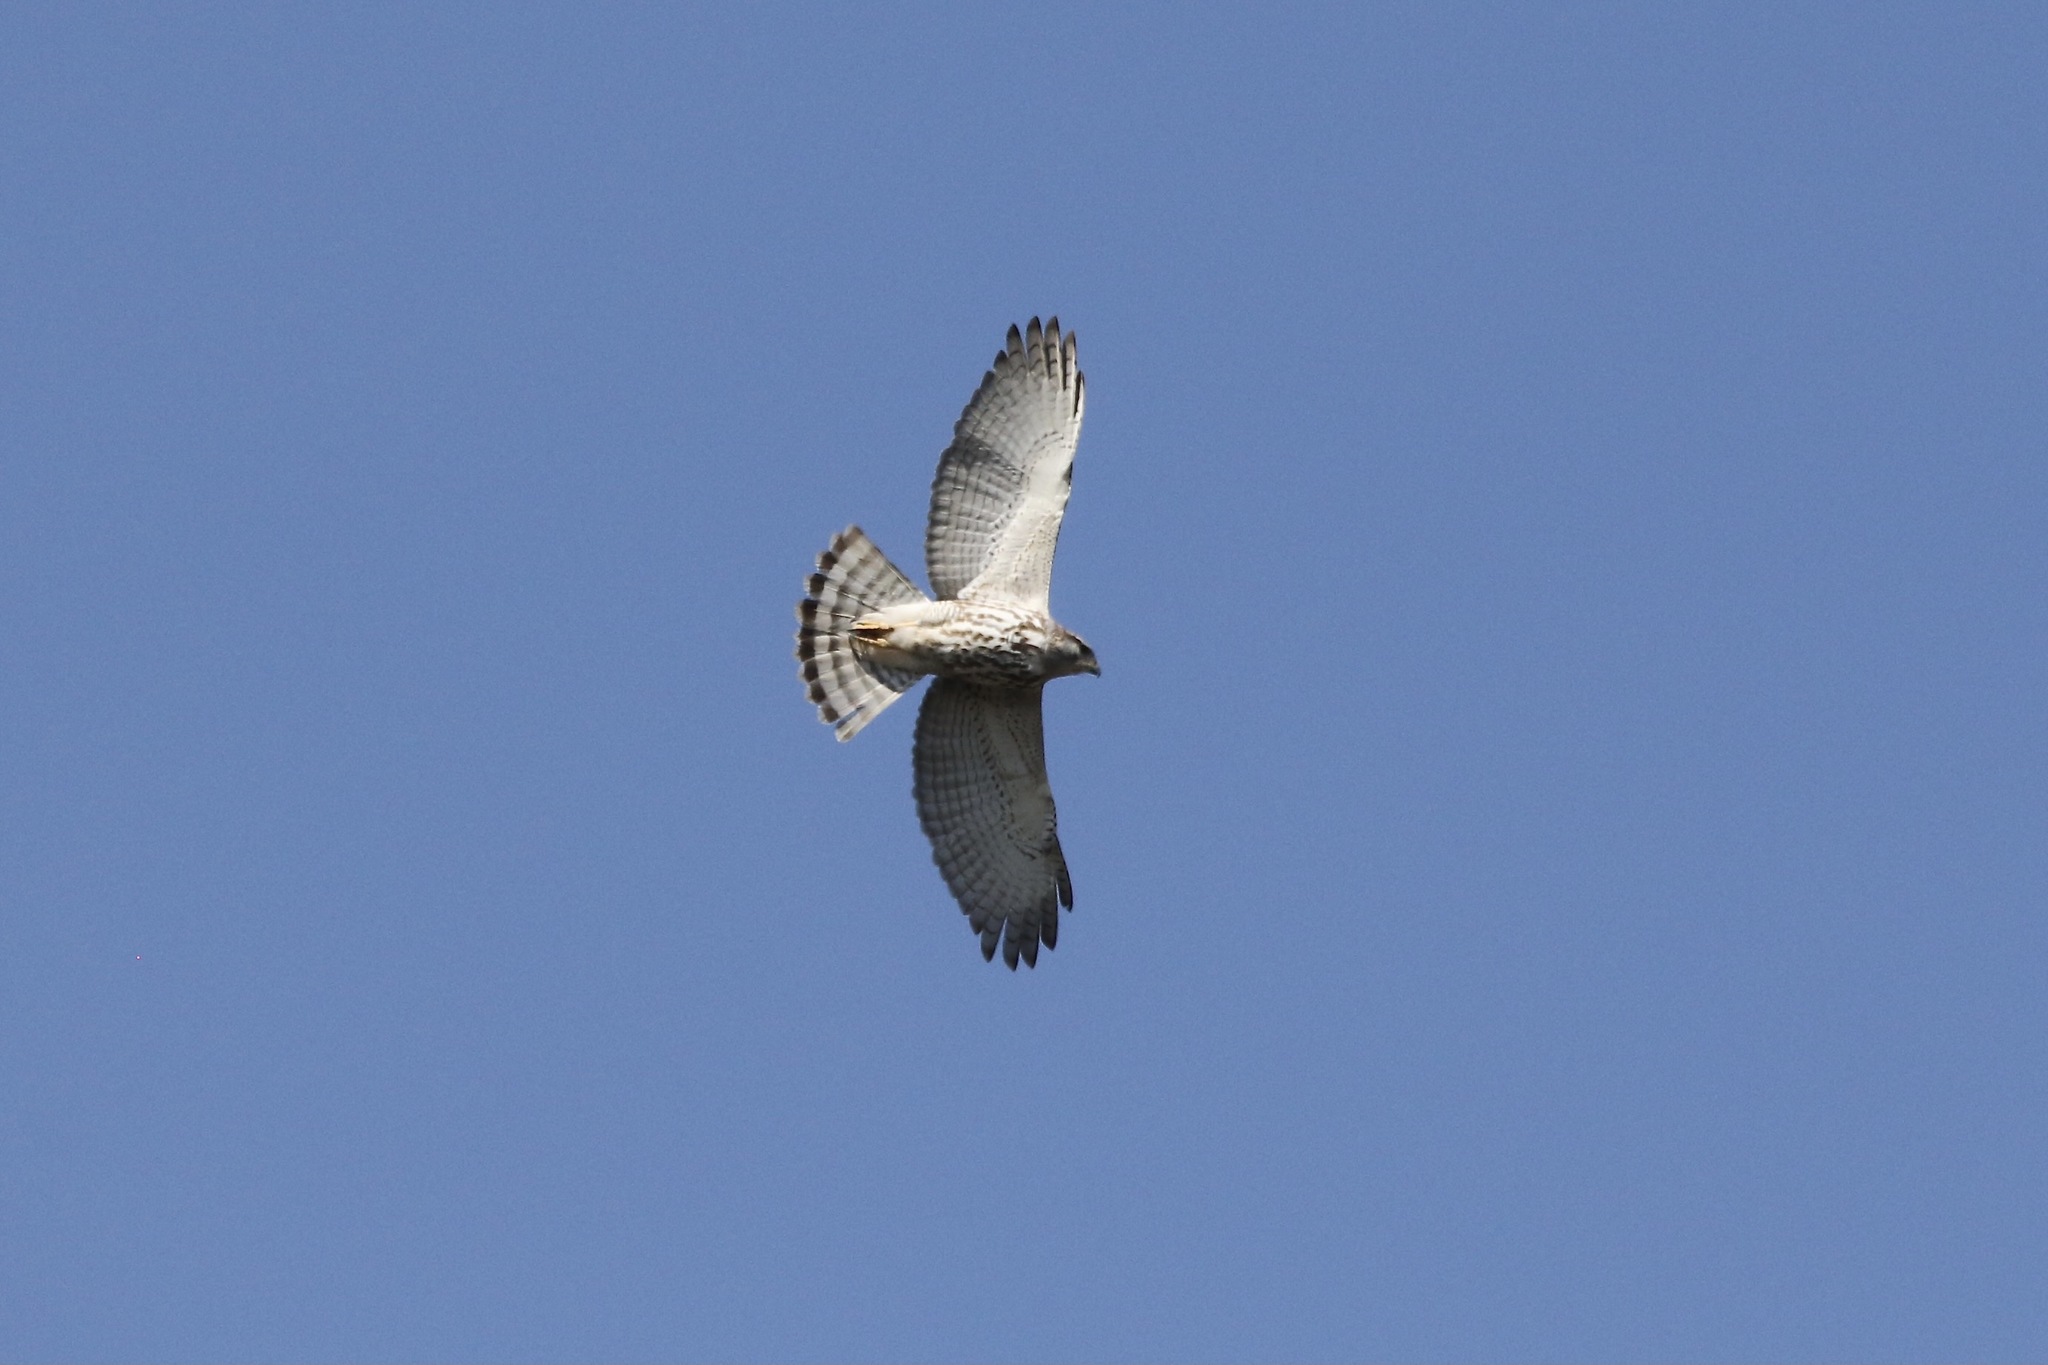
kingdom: Animalia
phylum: Chordata
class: Aves
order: Accipitriformes
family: Accipitridae
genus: Buteo
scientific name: Buteo nitidus
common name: Grey-lined hawk
